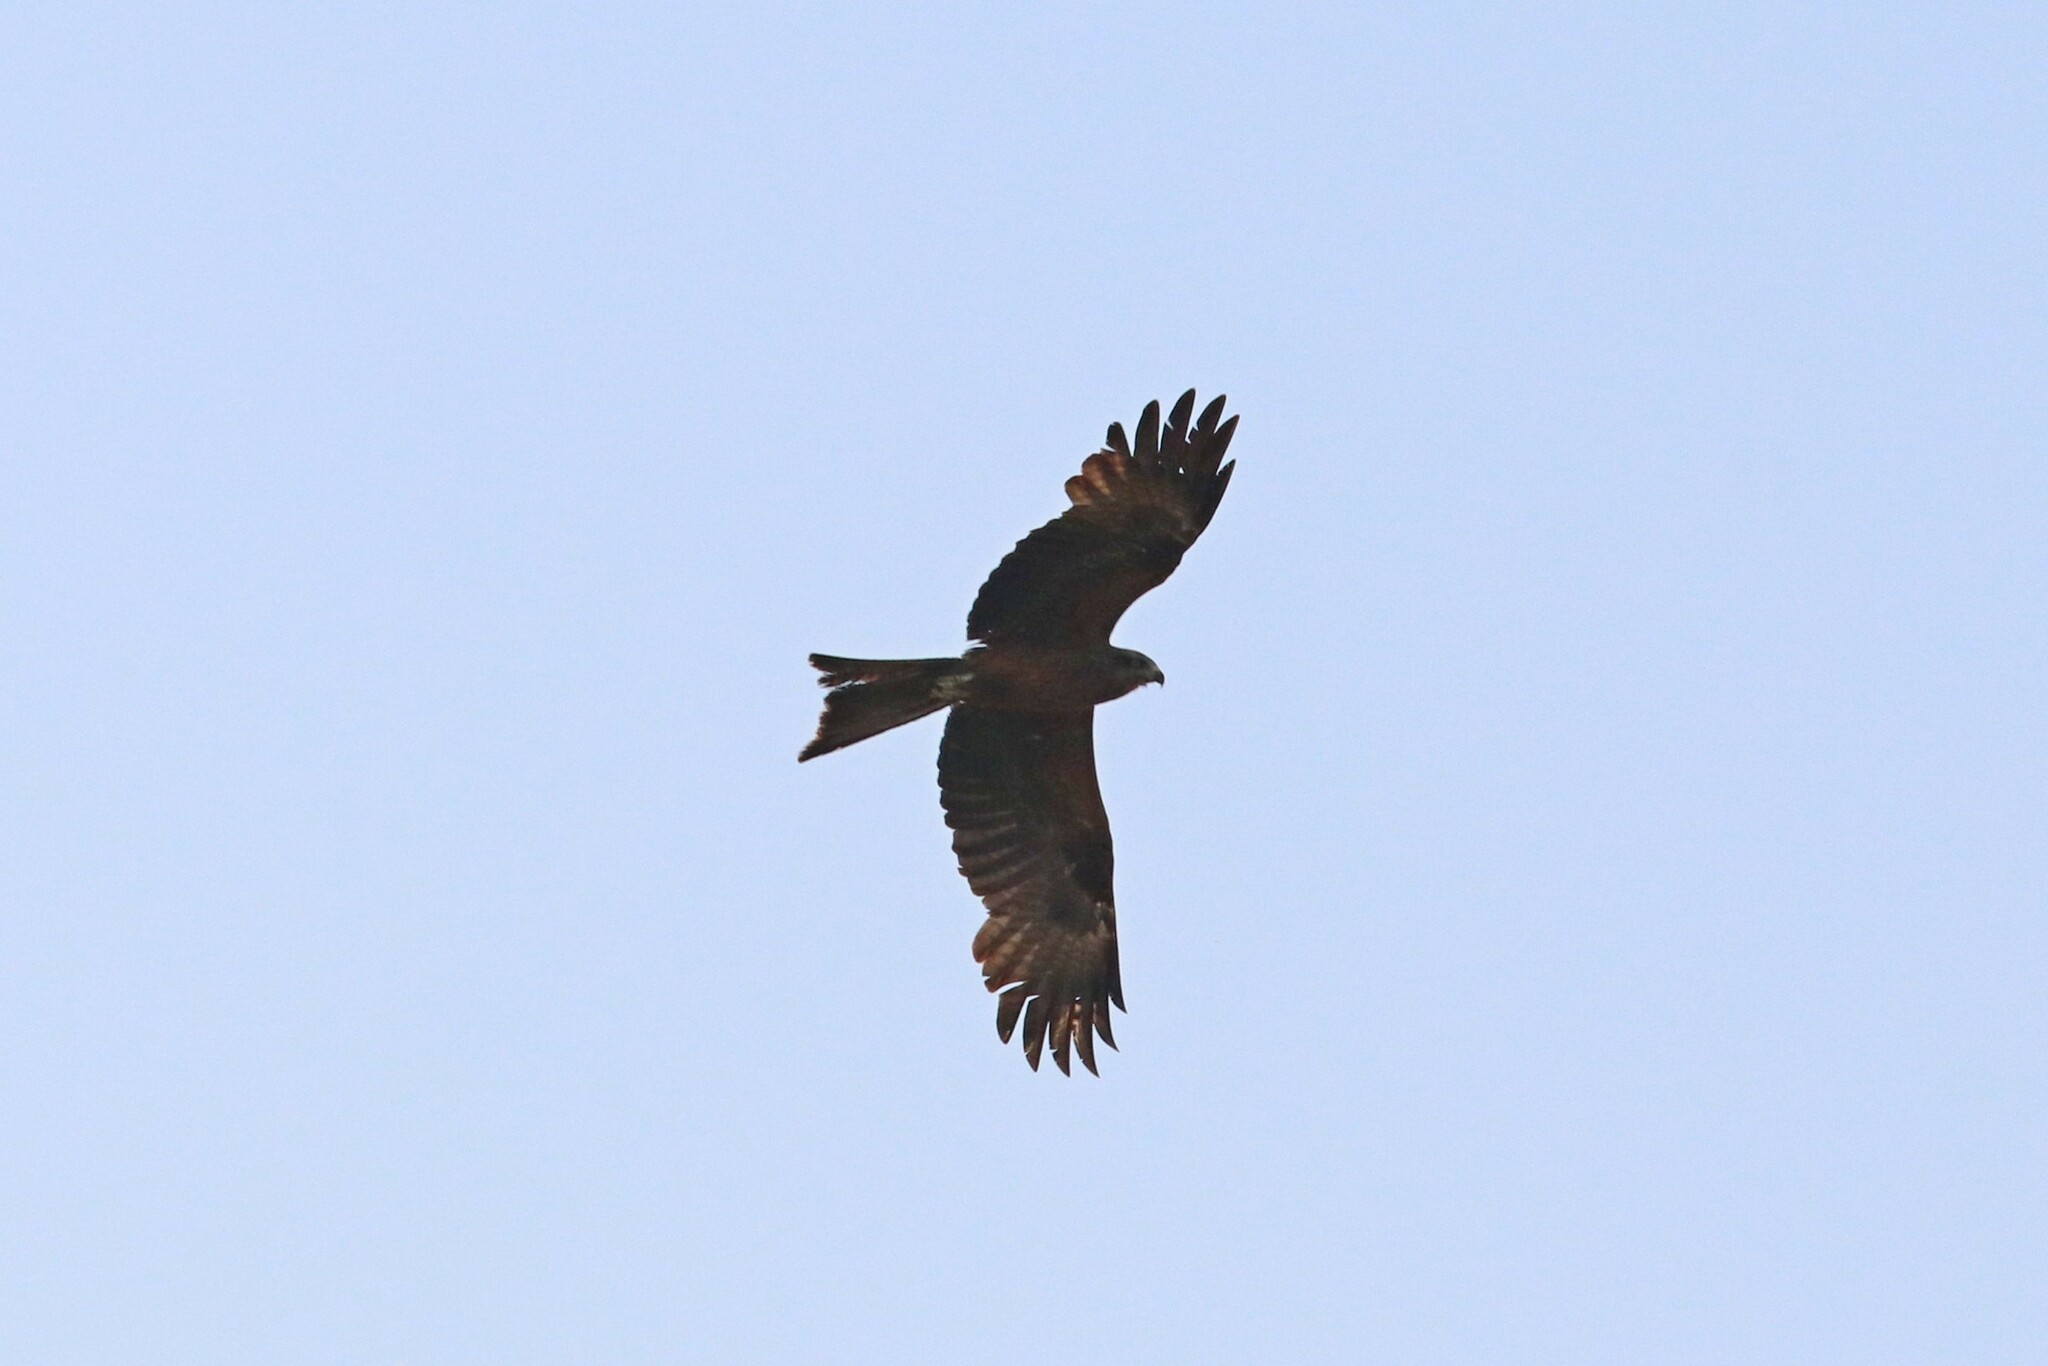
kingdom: Animalia
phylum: Chordata
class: Aves
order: Accipitriformes
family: Accipitridae
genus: Milvus
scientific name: Milvus migrans
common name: Black kite
